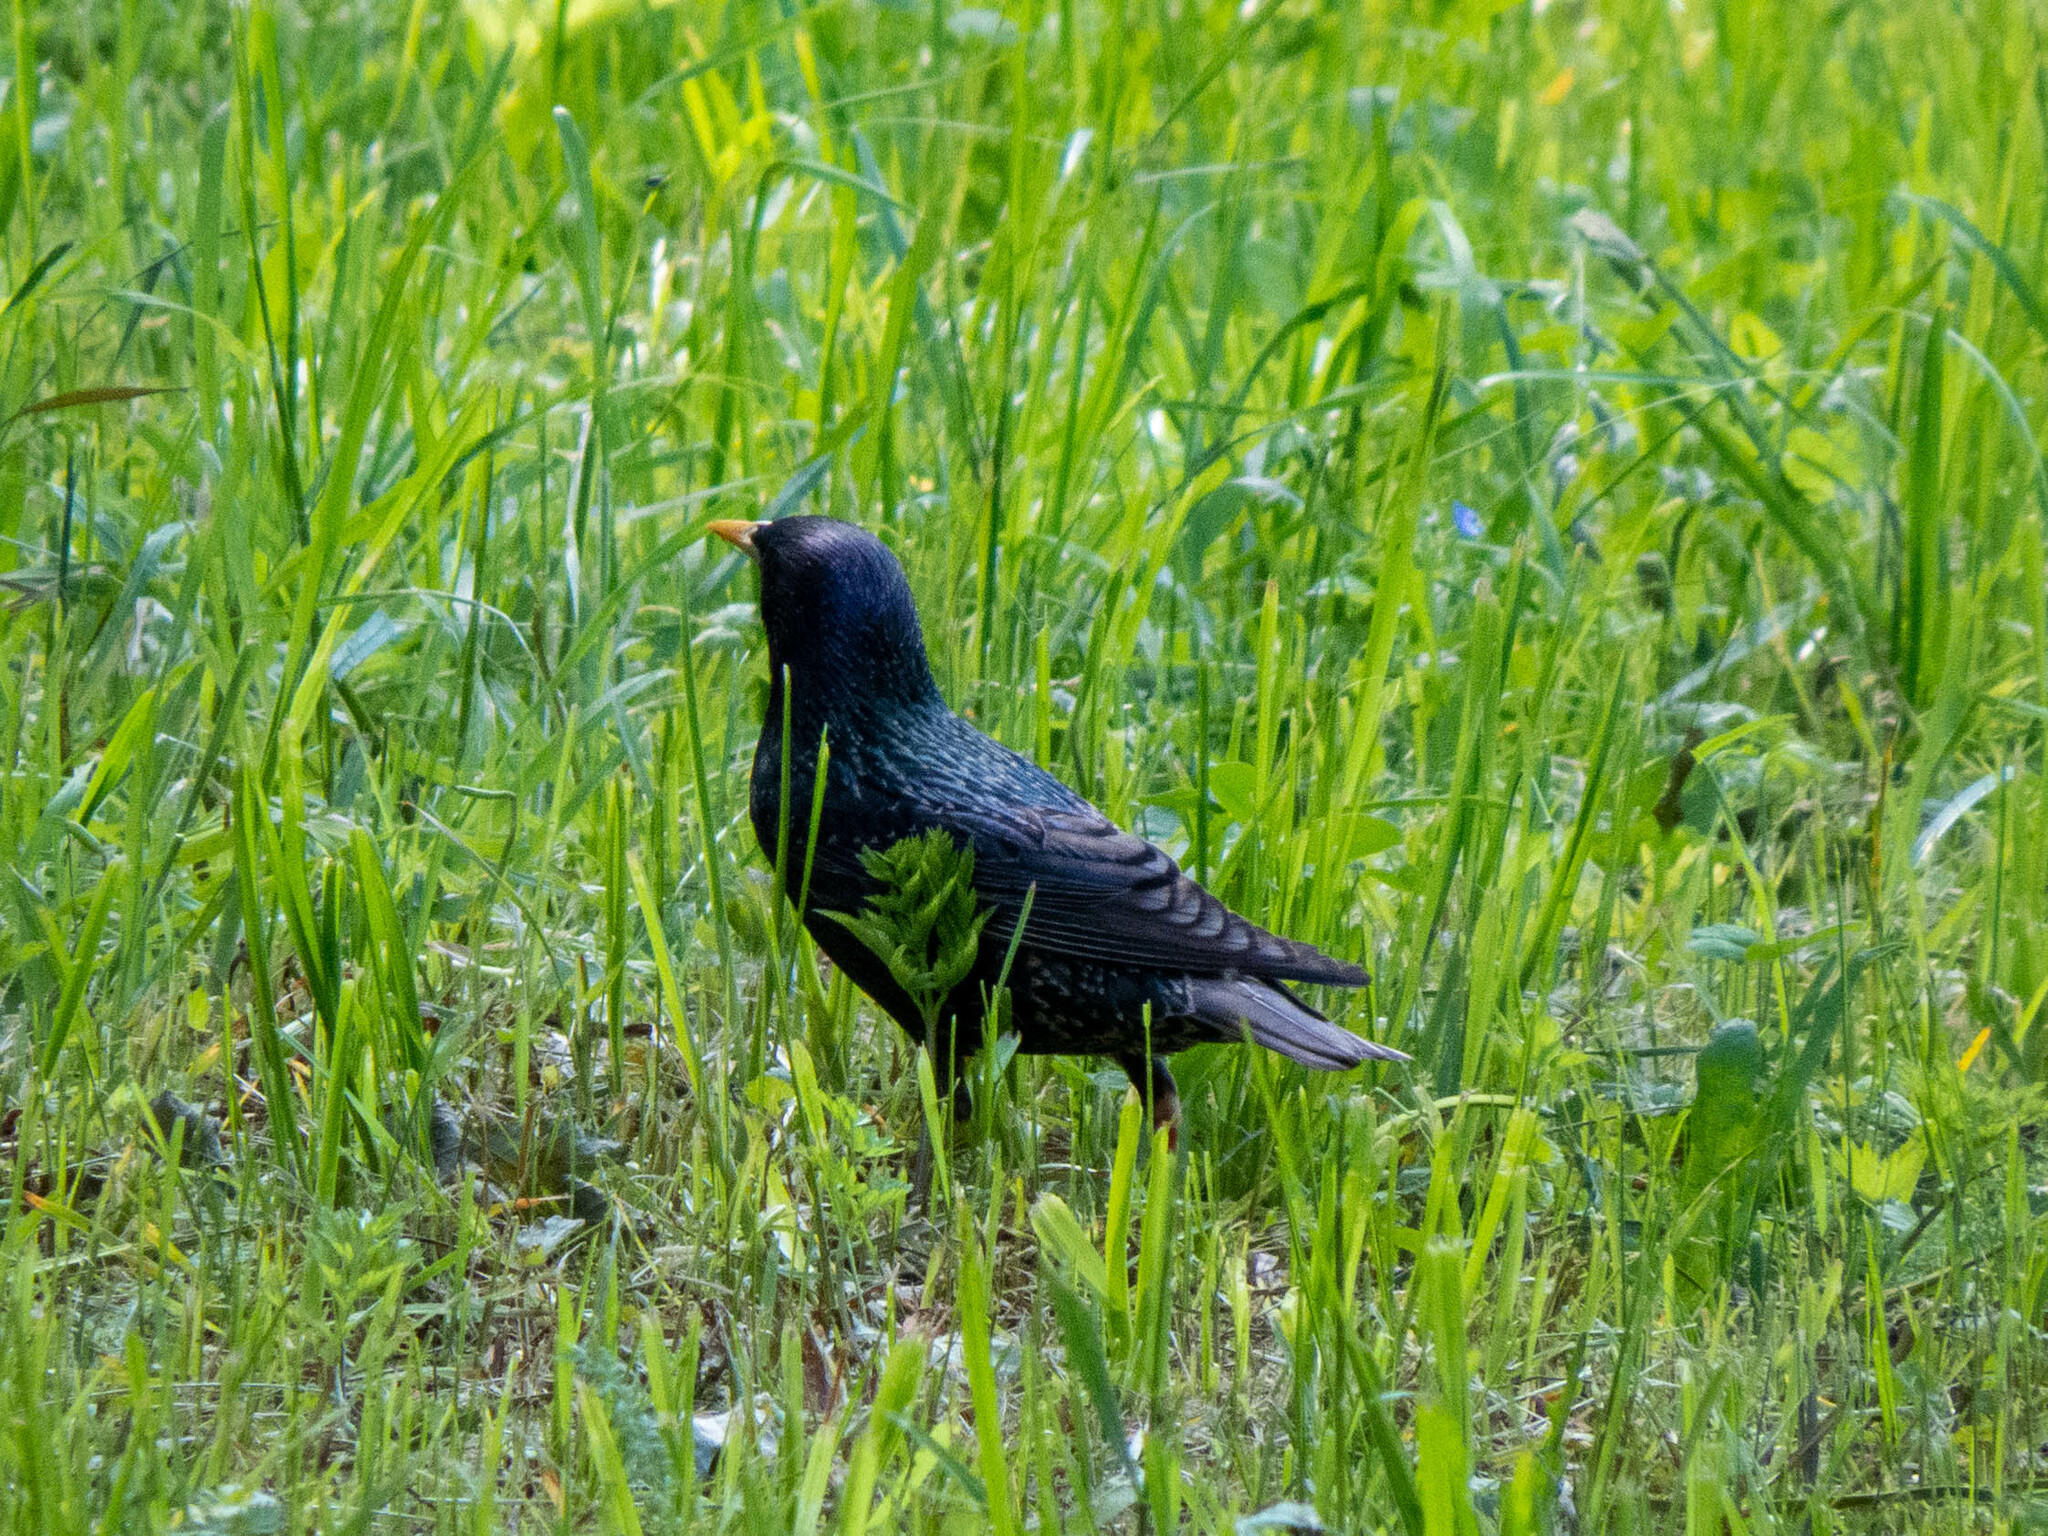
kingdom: Animalia
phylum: Chordata
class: Aves
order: Passeriformes
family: Sturnidae
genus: Sturnus
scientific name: Sturnus vulgaris
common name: Common starling
